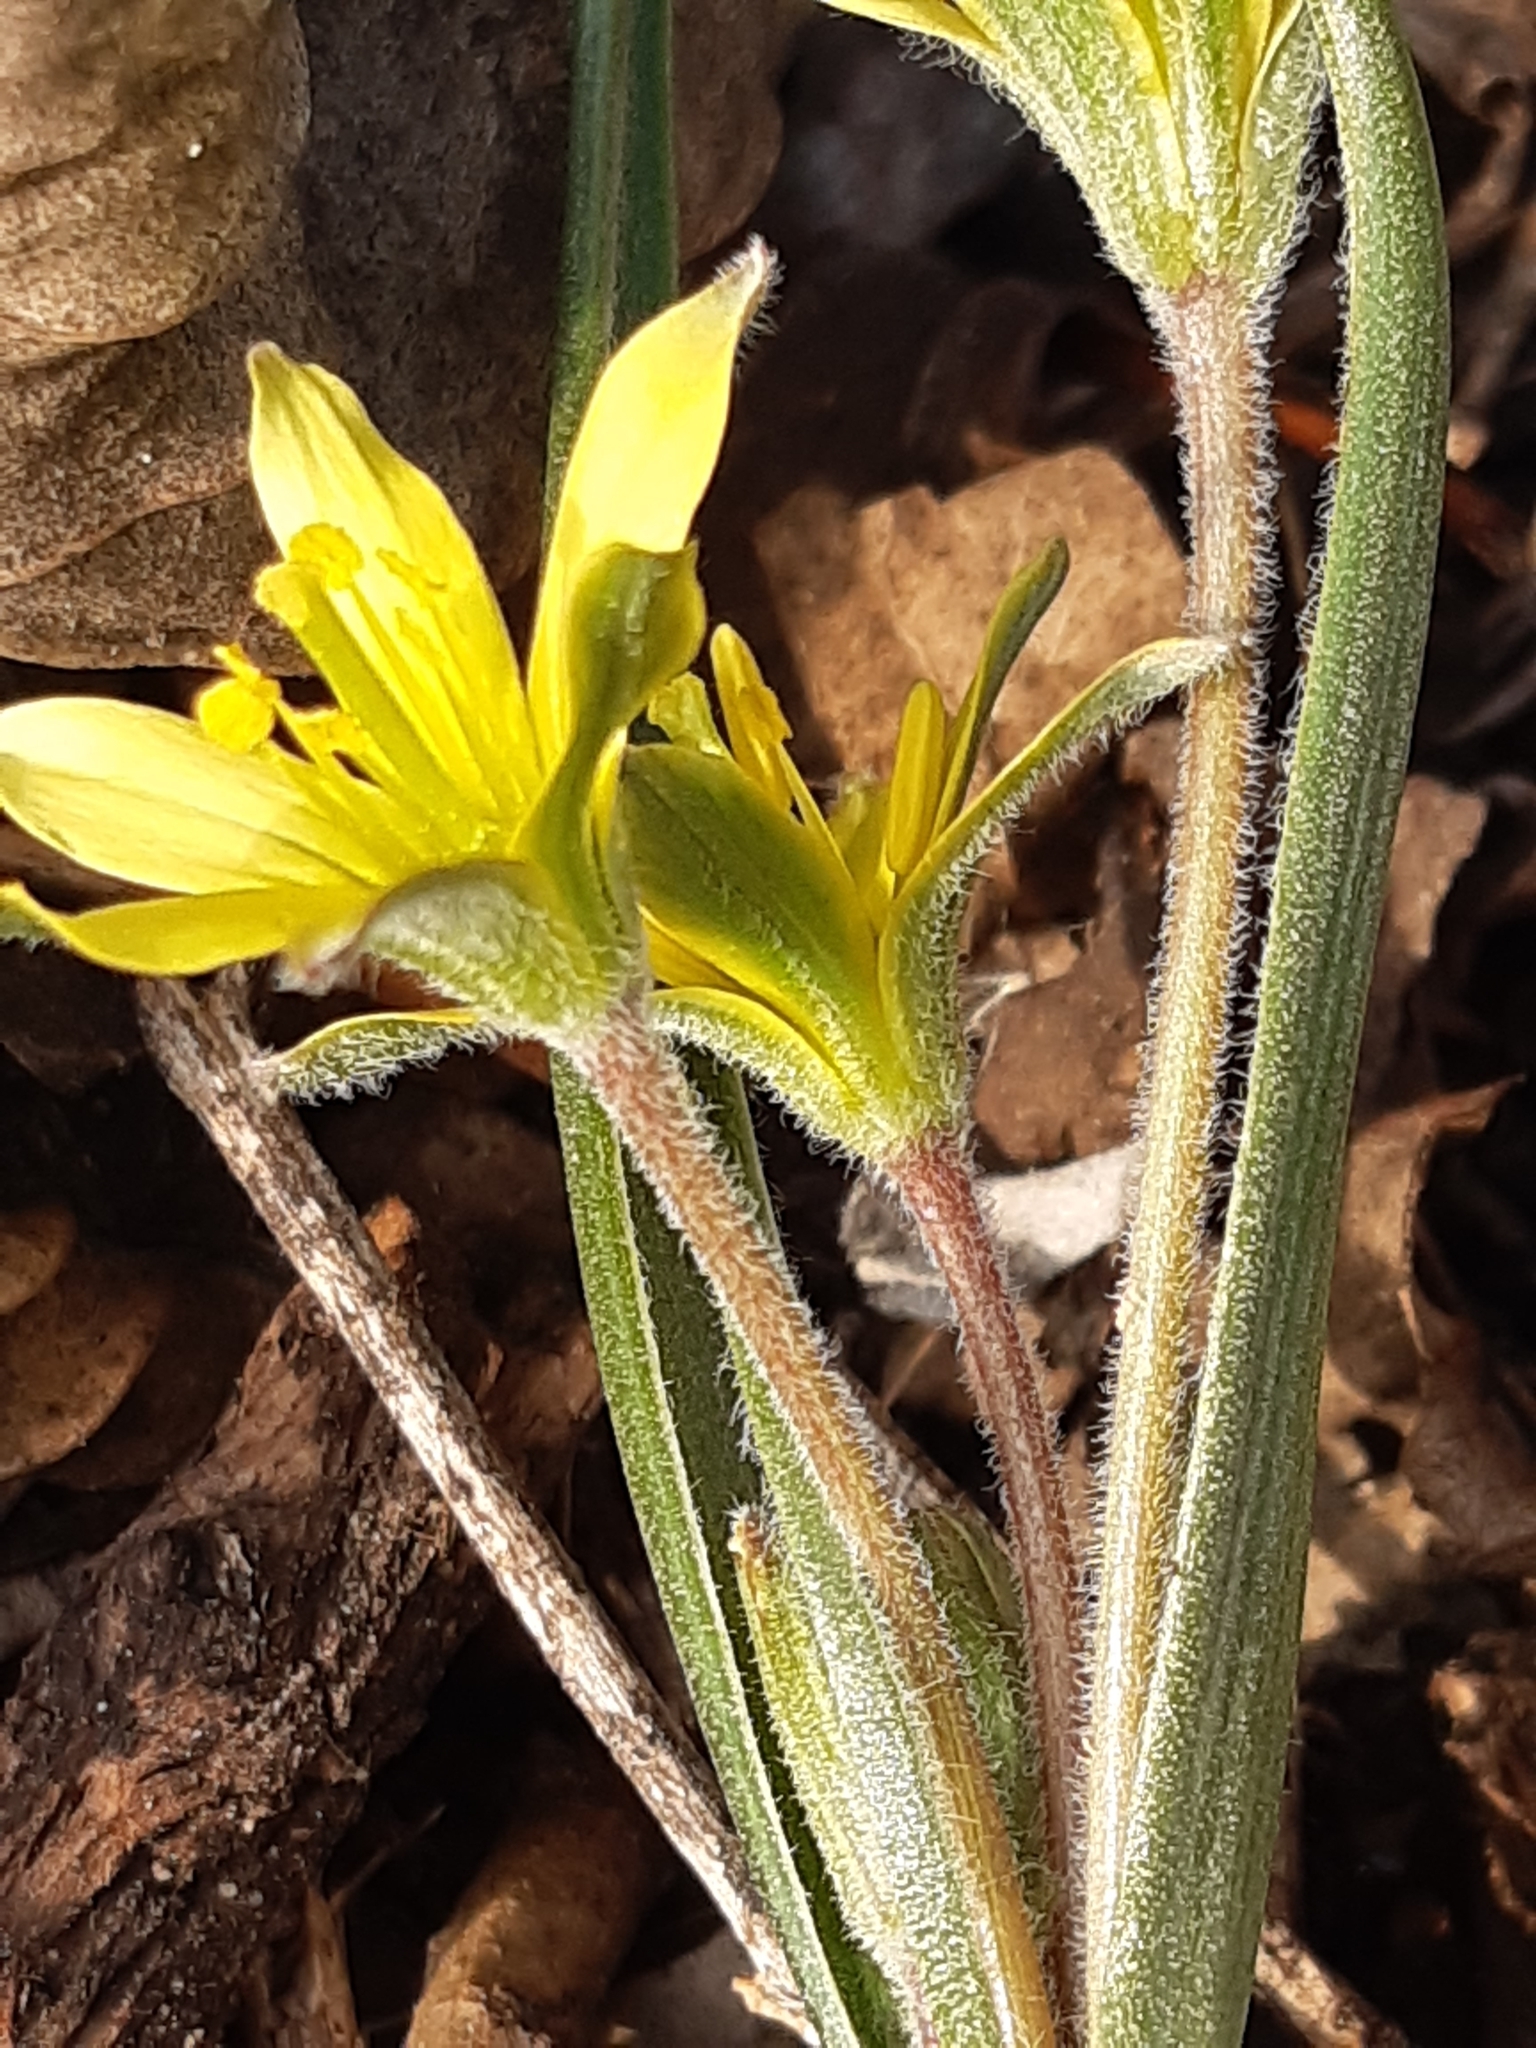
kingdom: Plantae
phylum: Tracheophyta
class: Liliopsida
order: Liliales
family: Liliaceae
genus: Gagea
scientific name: Gagea villosa
